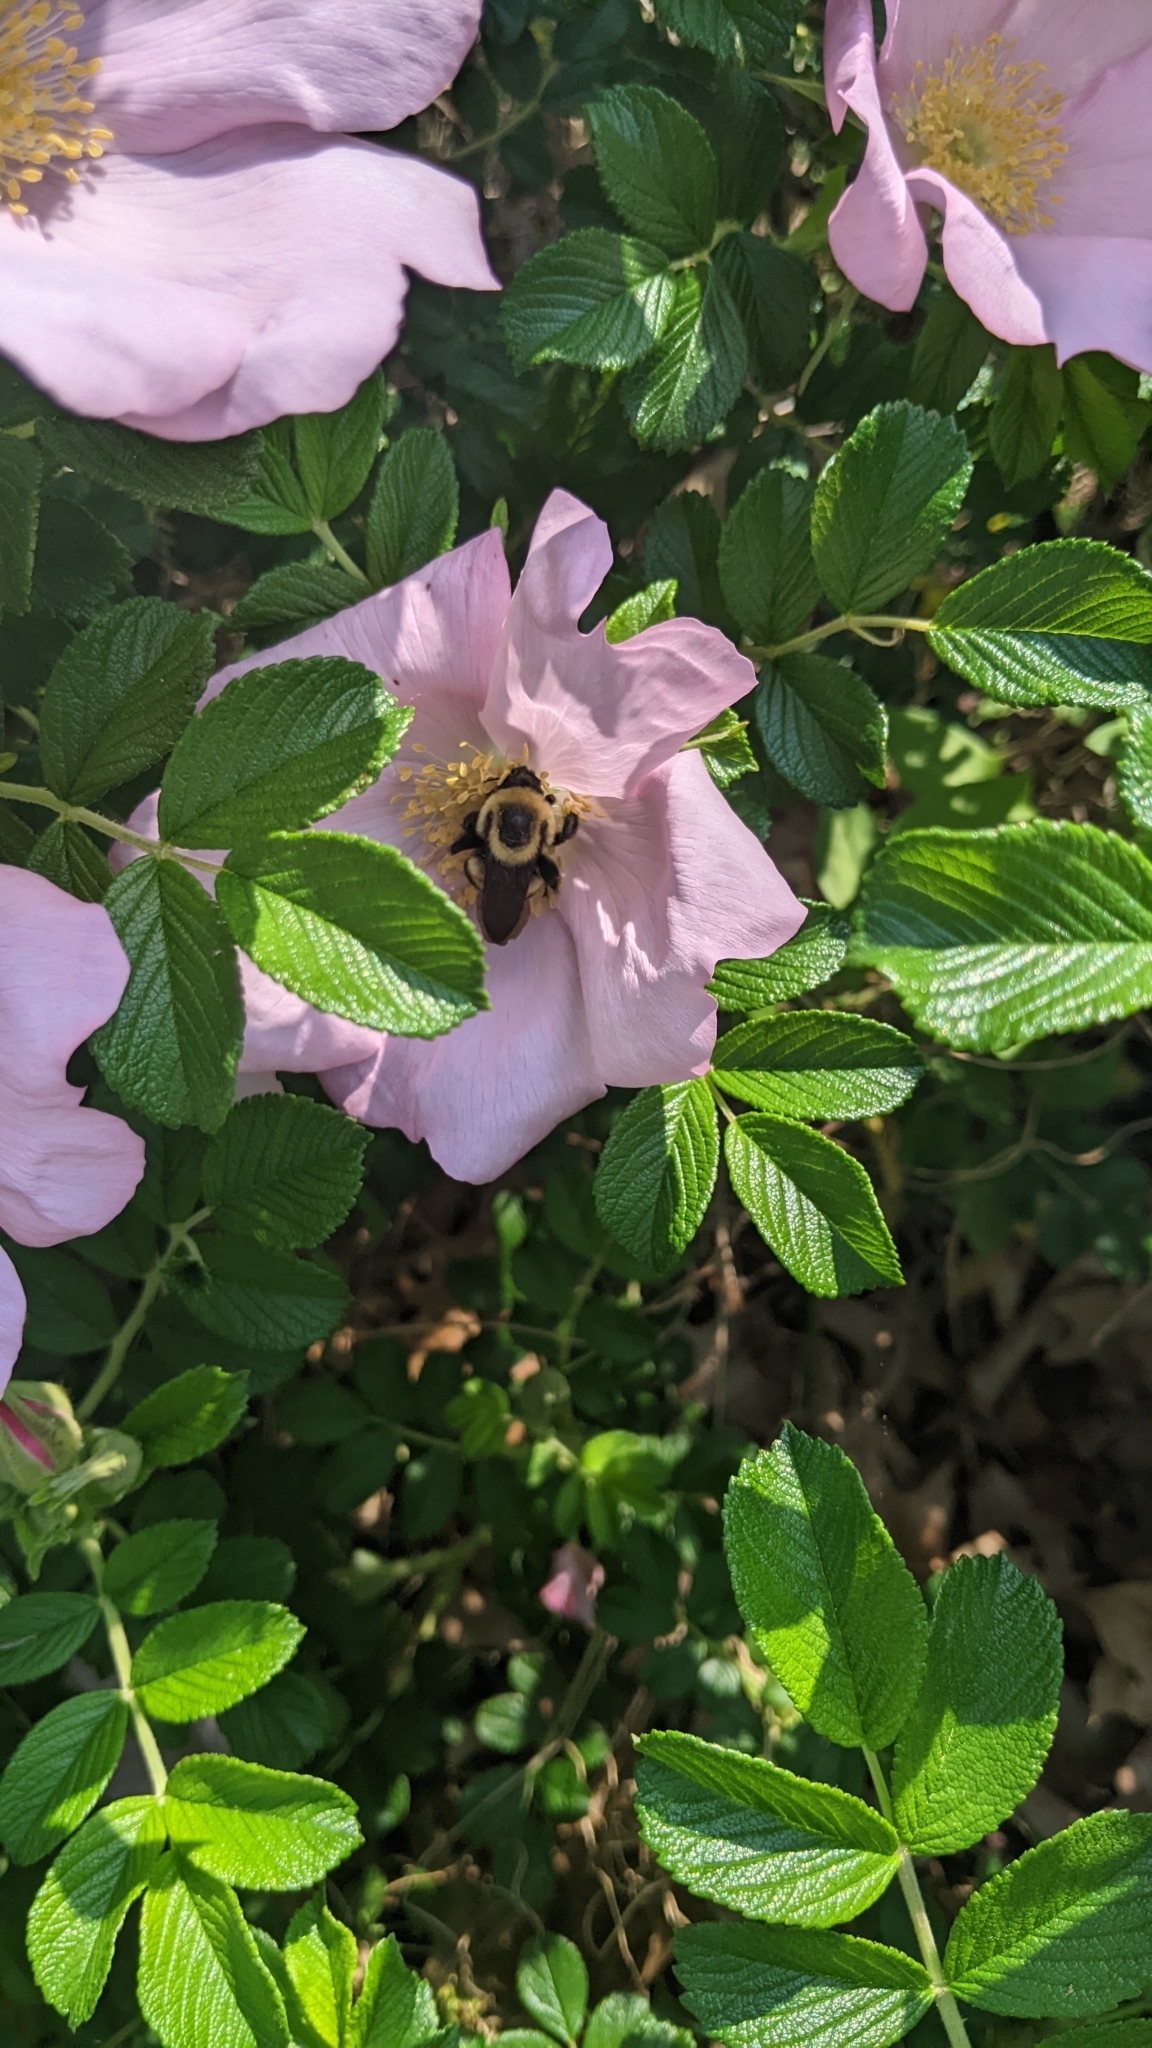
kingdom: Animalia
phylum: Arthropoda
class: Insecta
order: Hymenoptera
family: Apidae
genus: Bombus
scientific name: Bombus griseocollis
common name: Brown-belted bumble bee
